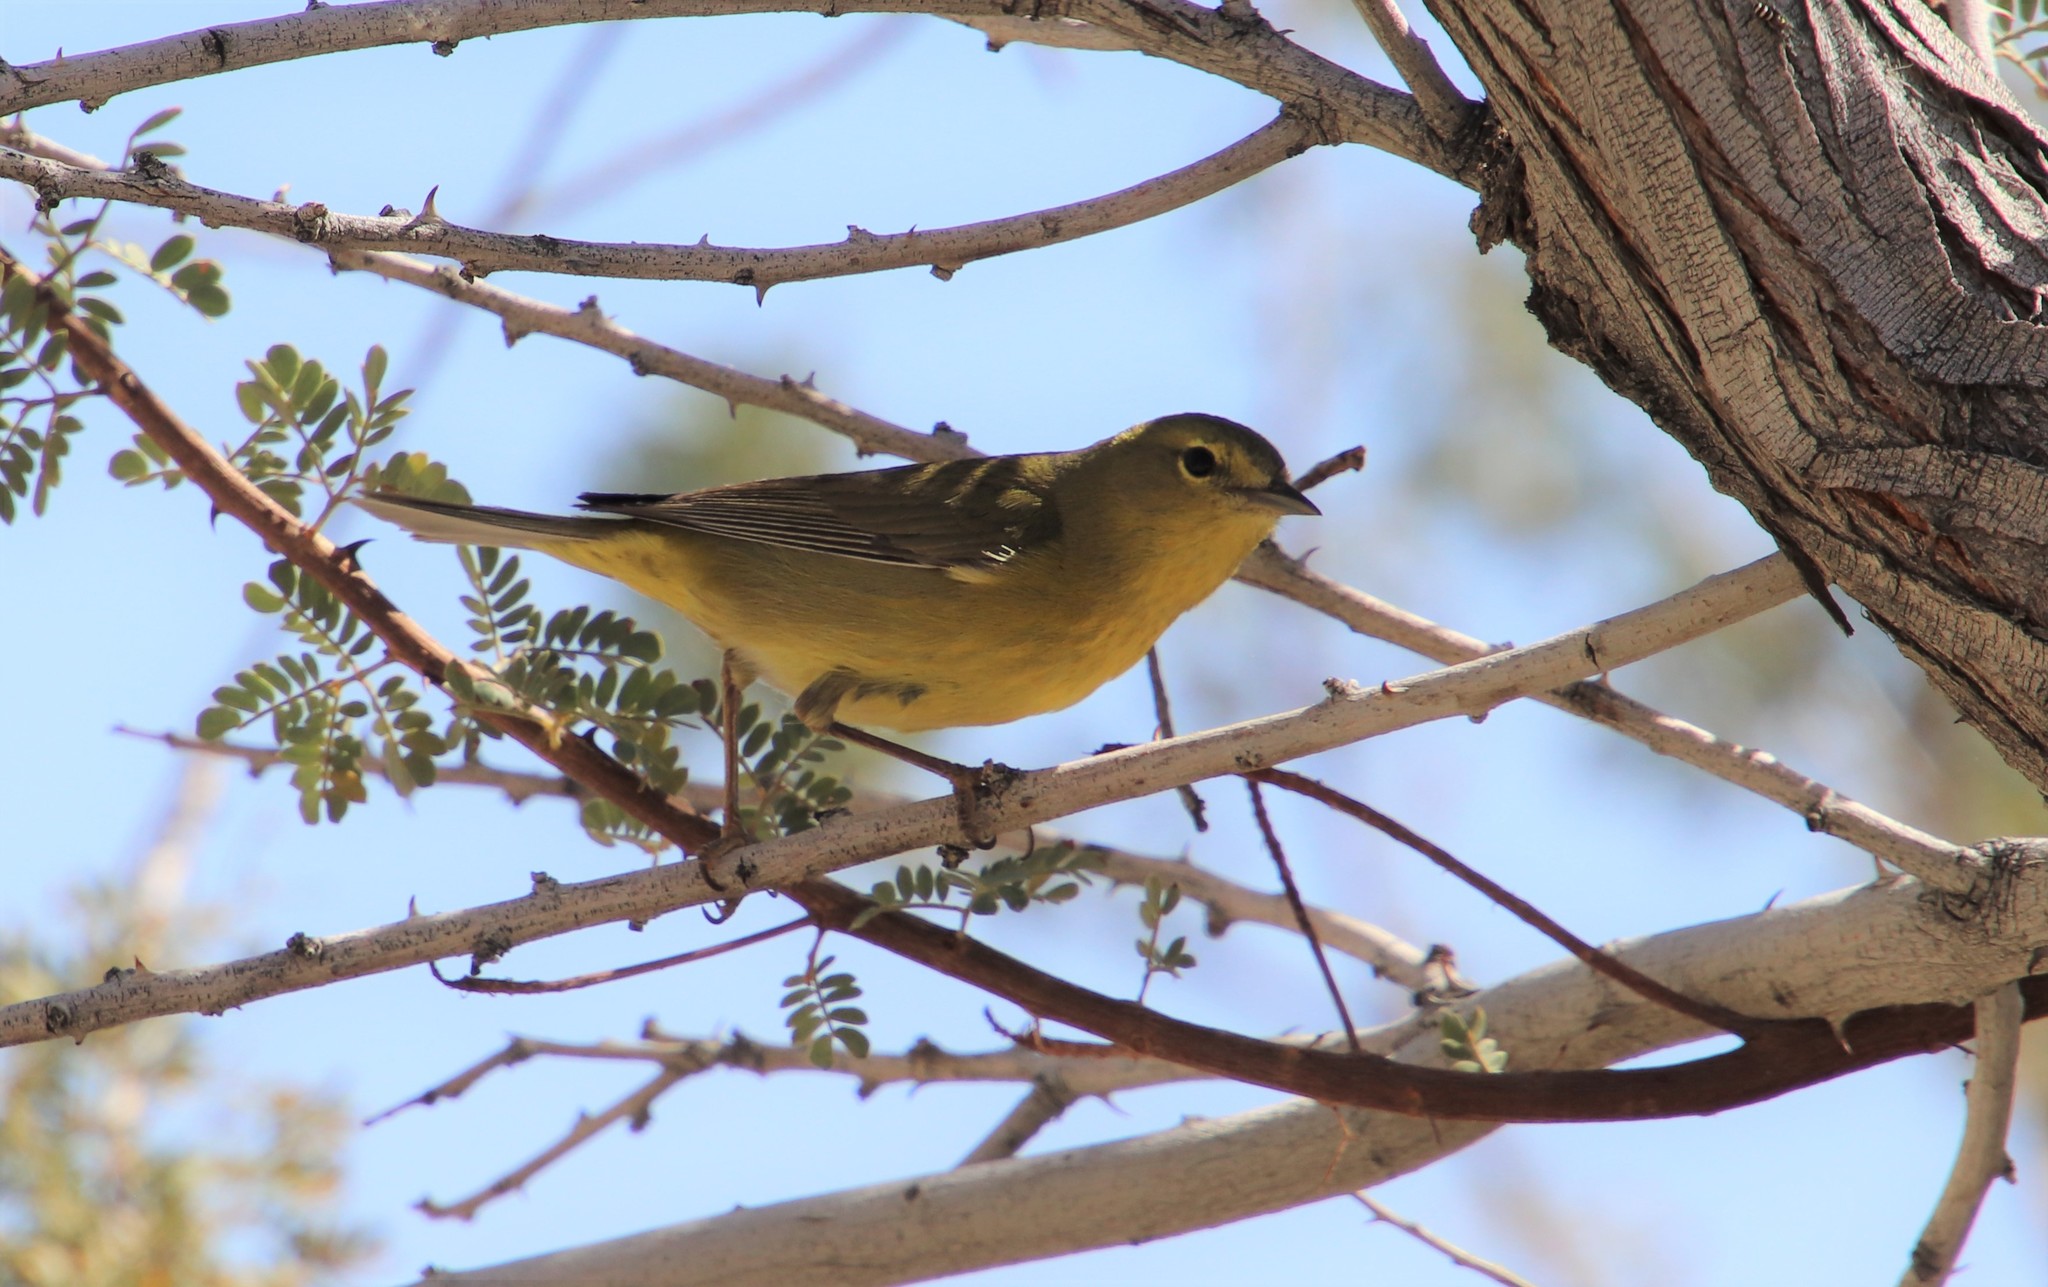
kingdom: Animalia
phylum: Chordata
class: Aves
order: Passeriformes
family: Parulidae
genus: Leiothlypis
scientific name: Leiothlypis celata
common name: Orange-crowned warbler
